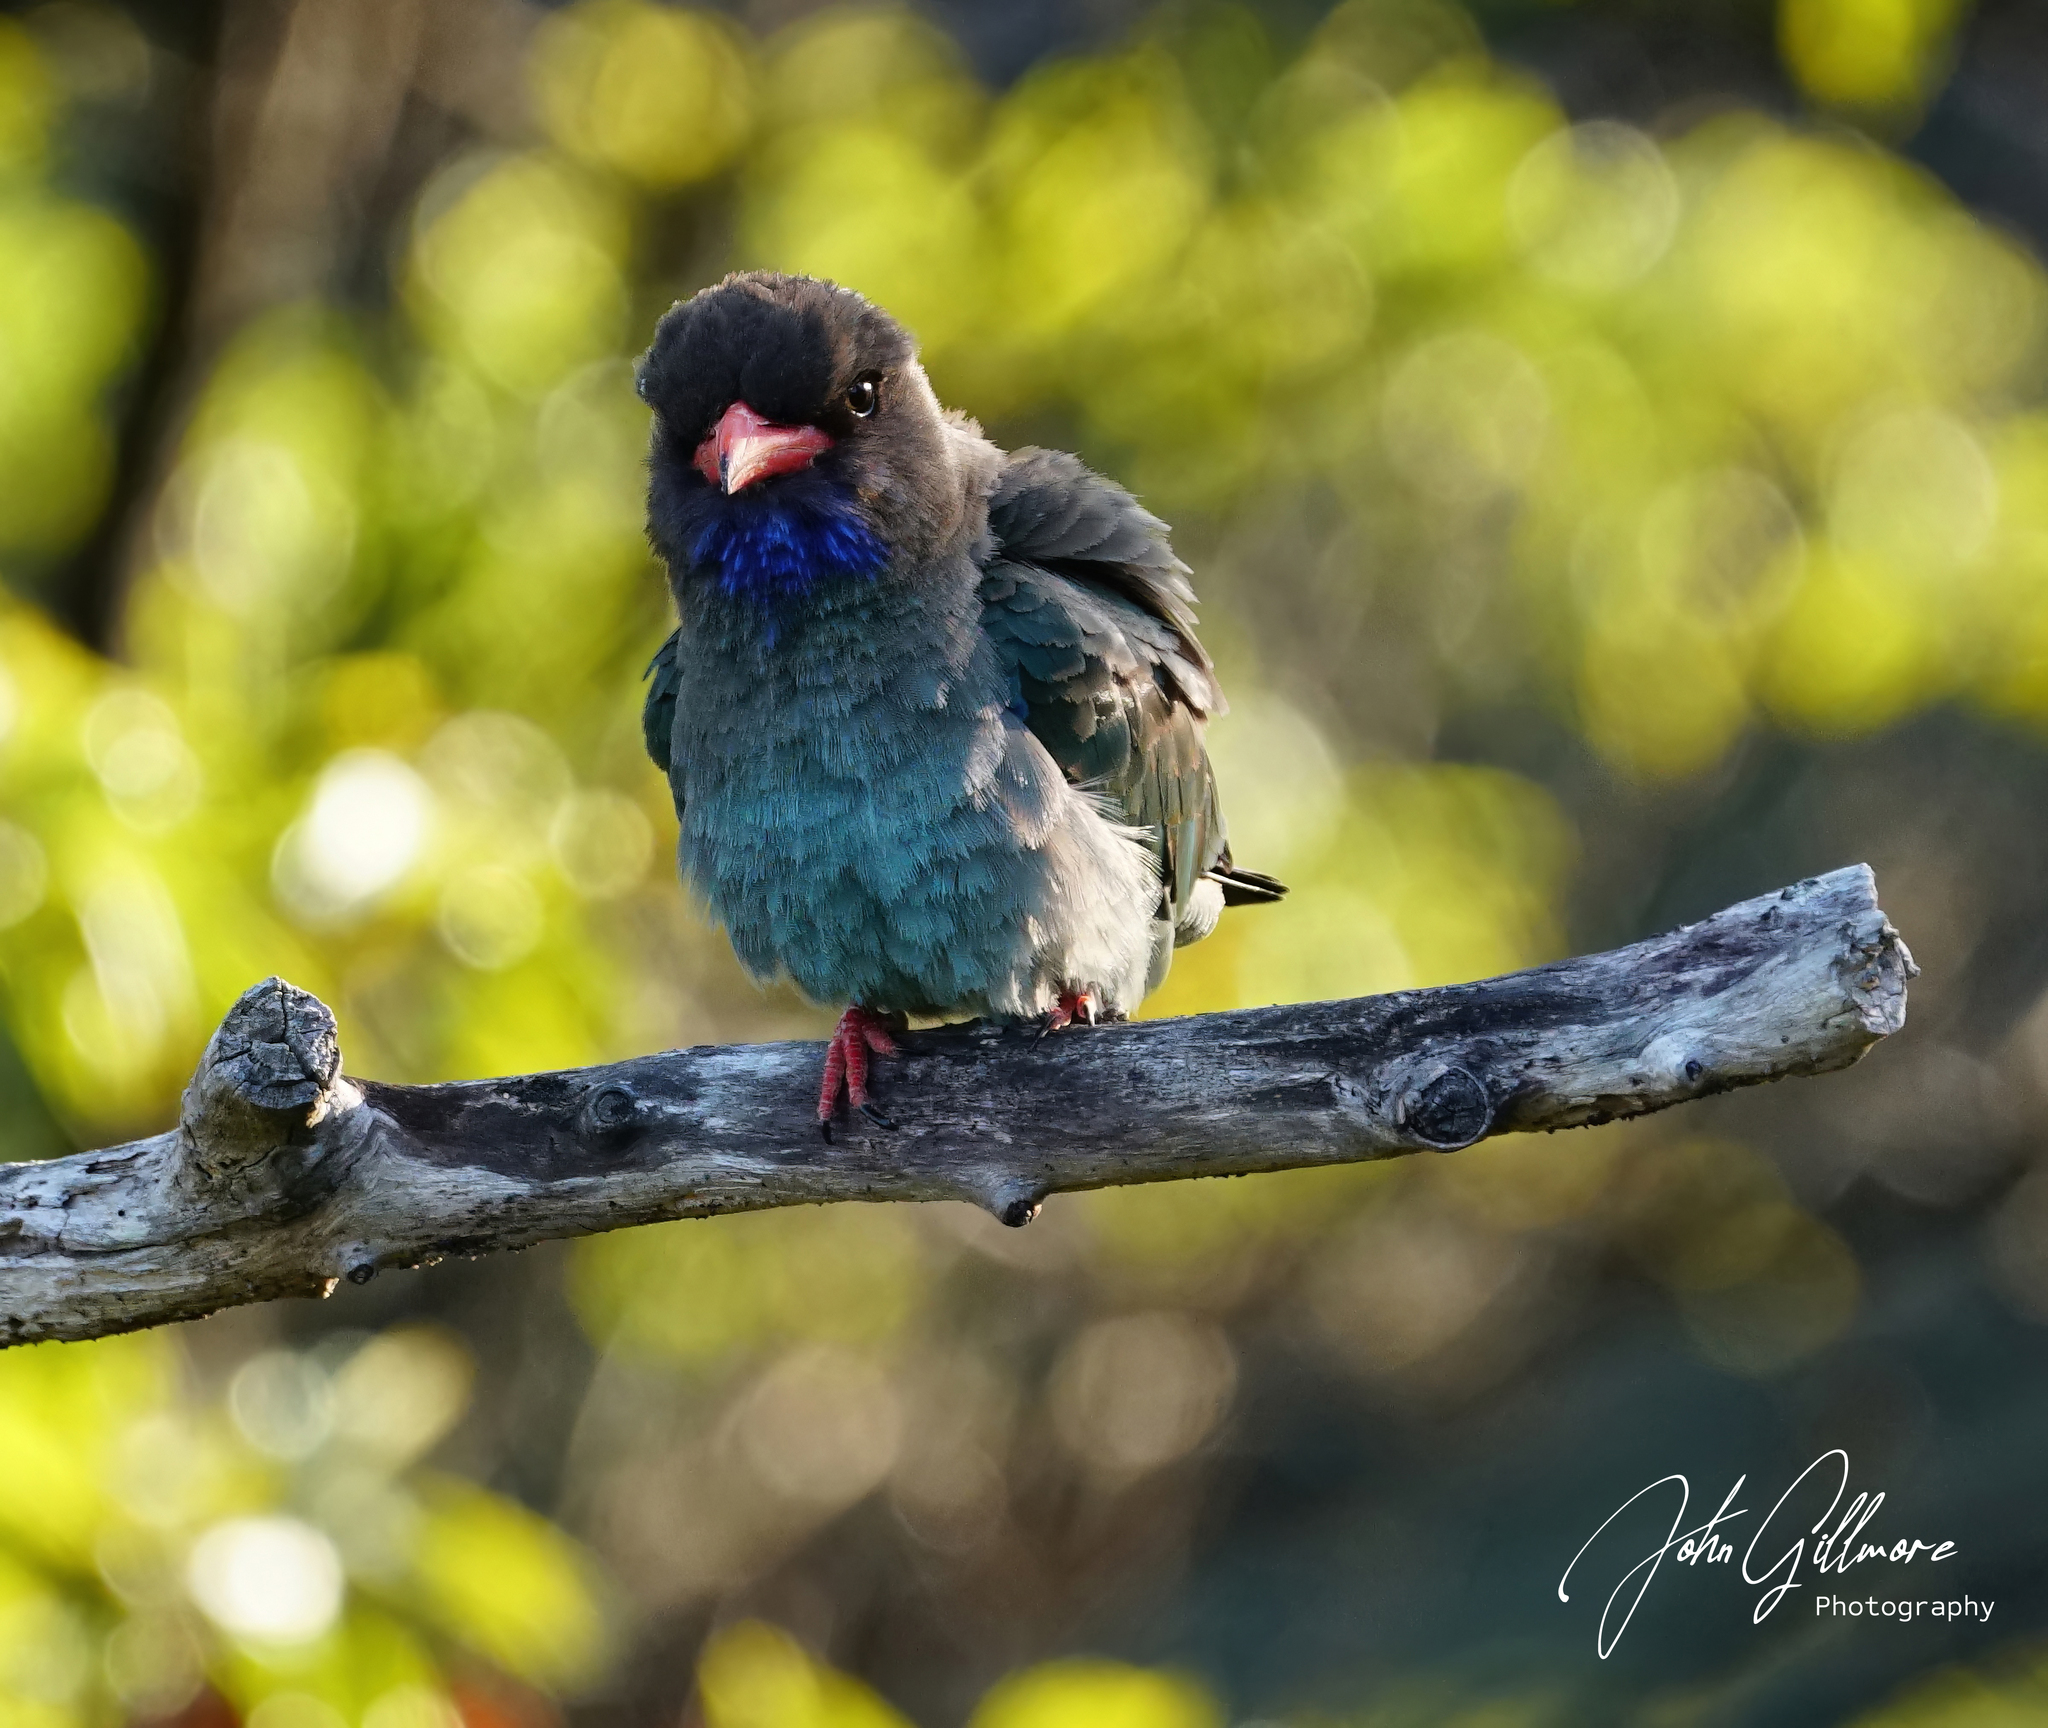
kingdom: Animalia
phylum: Chordata
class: Aves
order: Coraciiformes
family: Coraciidae
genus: Eurystomus
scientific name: Eurystomus orientalis
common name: Oriental dollarbird
